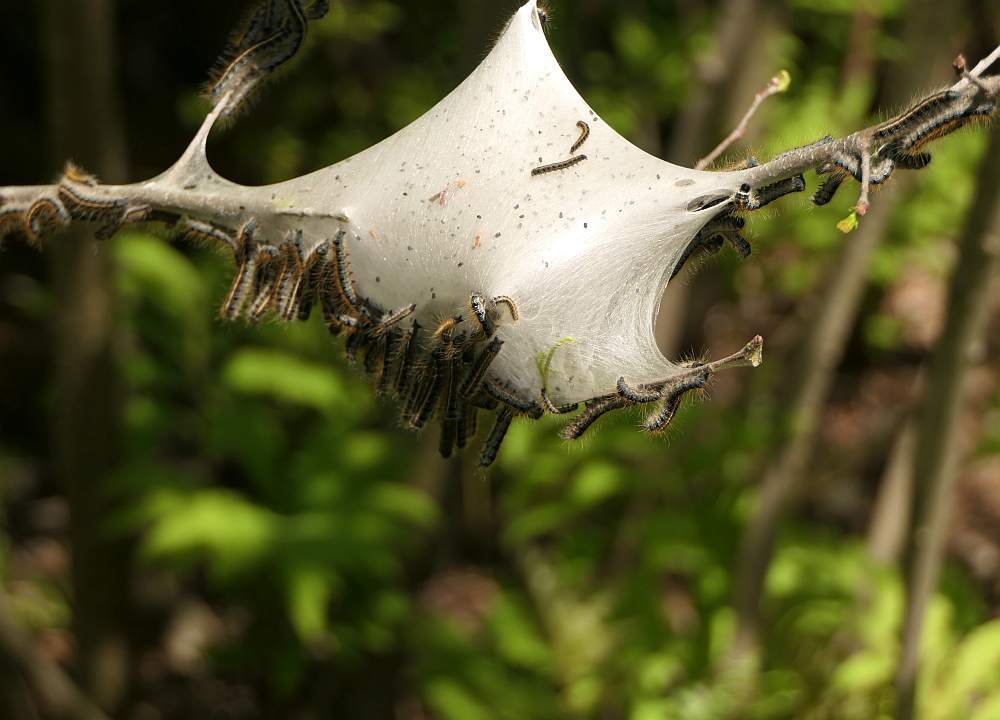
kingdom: Animalia
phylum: Arthropoda
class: Insecta
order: Lepidoptera
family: Lasiocampidae
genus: Malacosoma
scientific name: Malacosoma americana
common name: Eastern tent caterpillar moth
